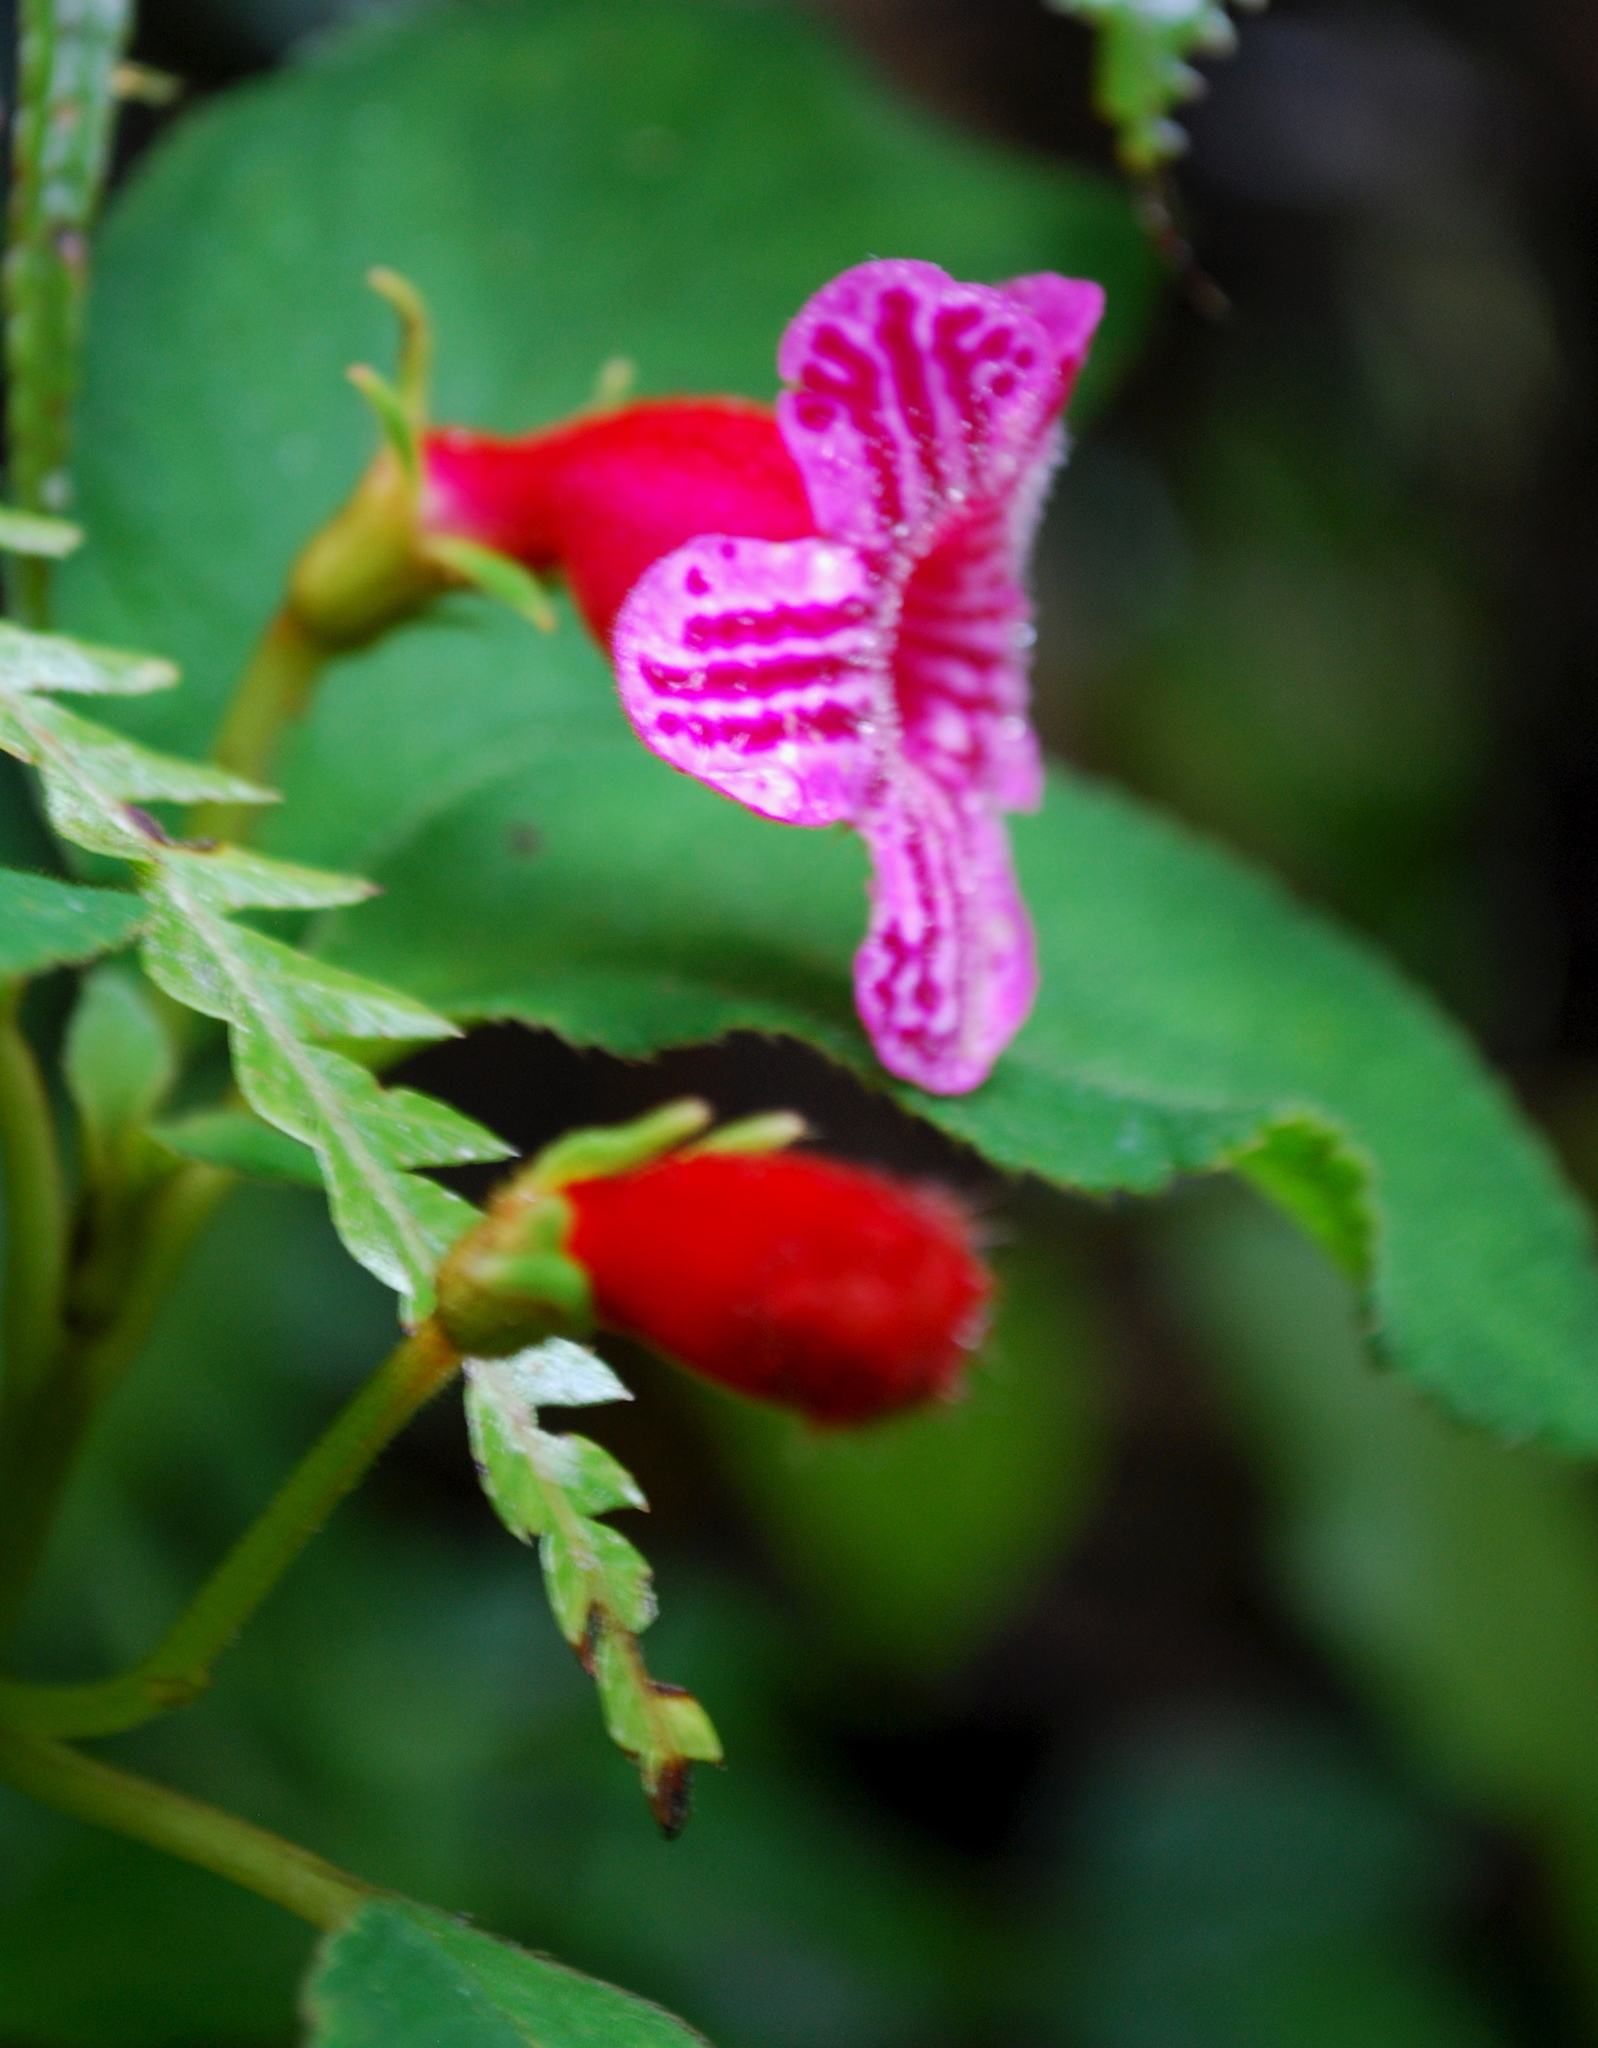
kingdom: Plantae
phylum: Tracheophyta
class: Magnoliopsida
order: Lamiales
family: Gesneriaceae
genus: Kohleria
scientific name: Kohleria huilensis
